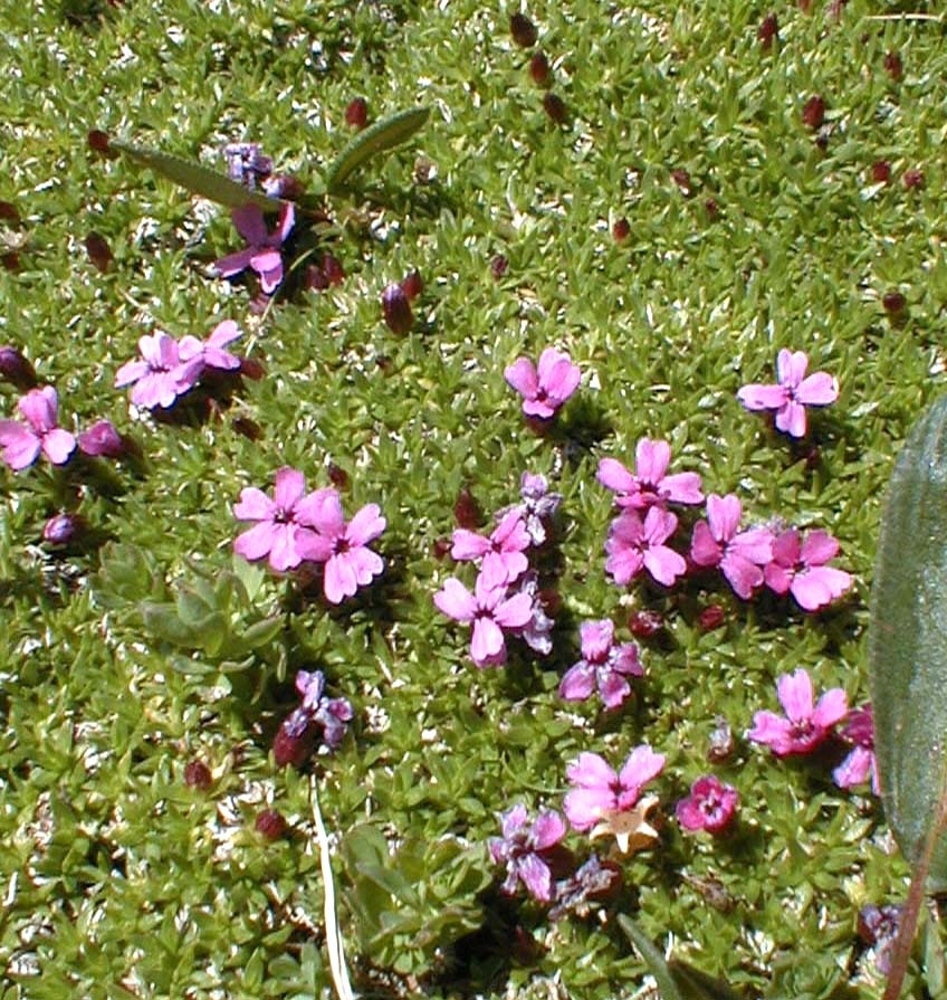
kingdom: Plantae
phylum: Tracheophyta
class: Magnoliopsida
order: Caryophyllales
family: Caryophyllaceae
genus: Silene
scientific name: Silene acaulis
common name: Moss campion
